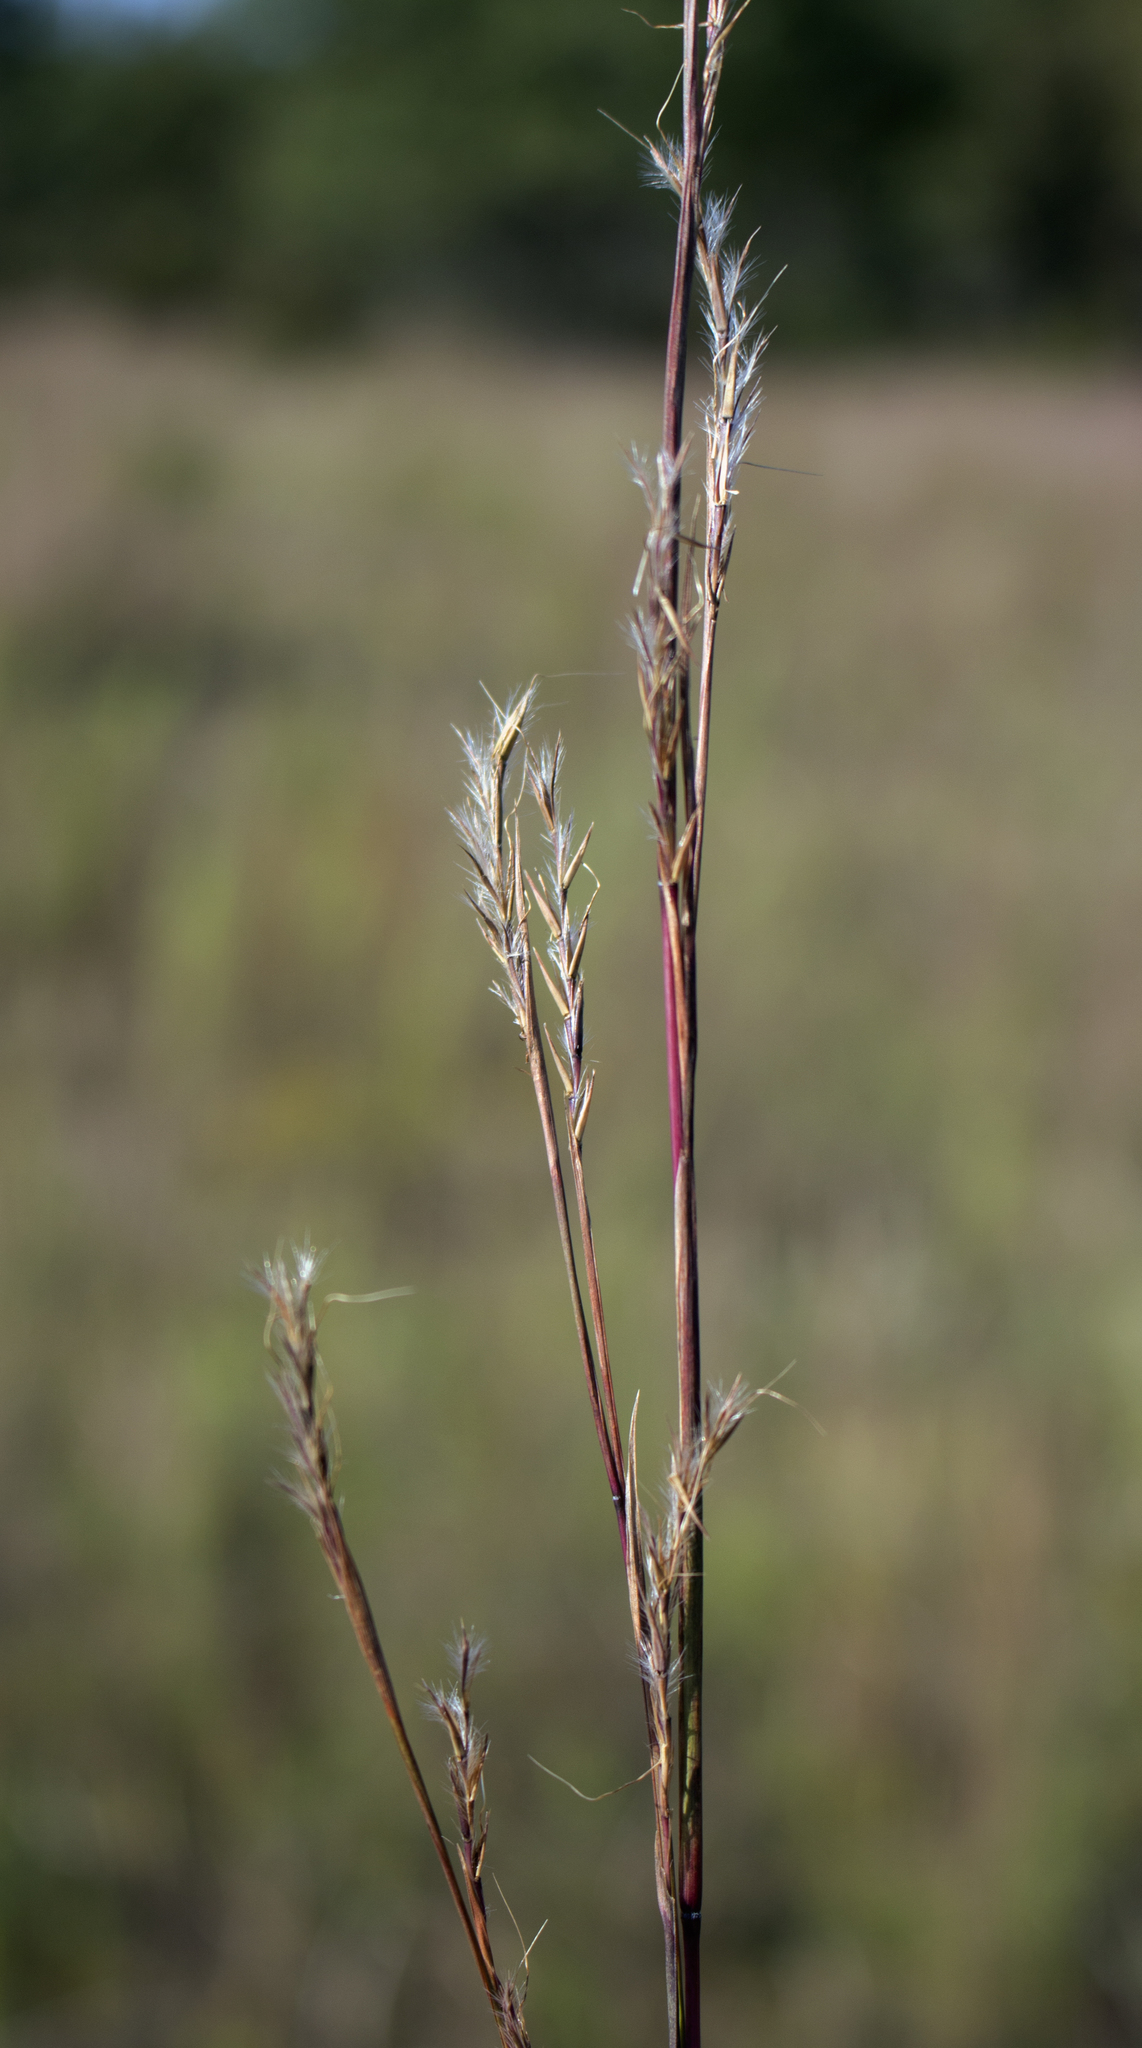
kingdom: Plantae
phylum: Tracheophyta
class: Liliopsida
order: Poales
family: Poaceae
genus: Schizachyrium
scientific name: Schizachyrium scoparium
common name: Little bluestem
